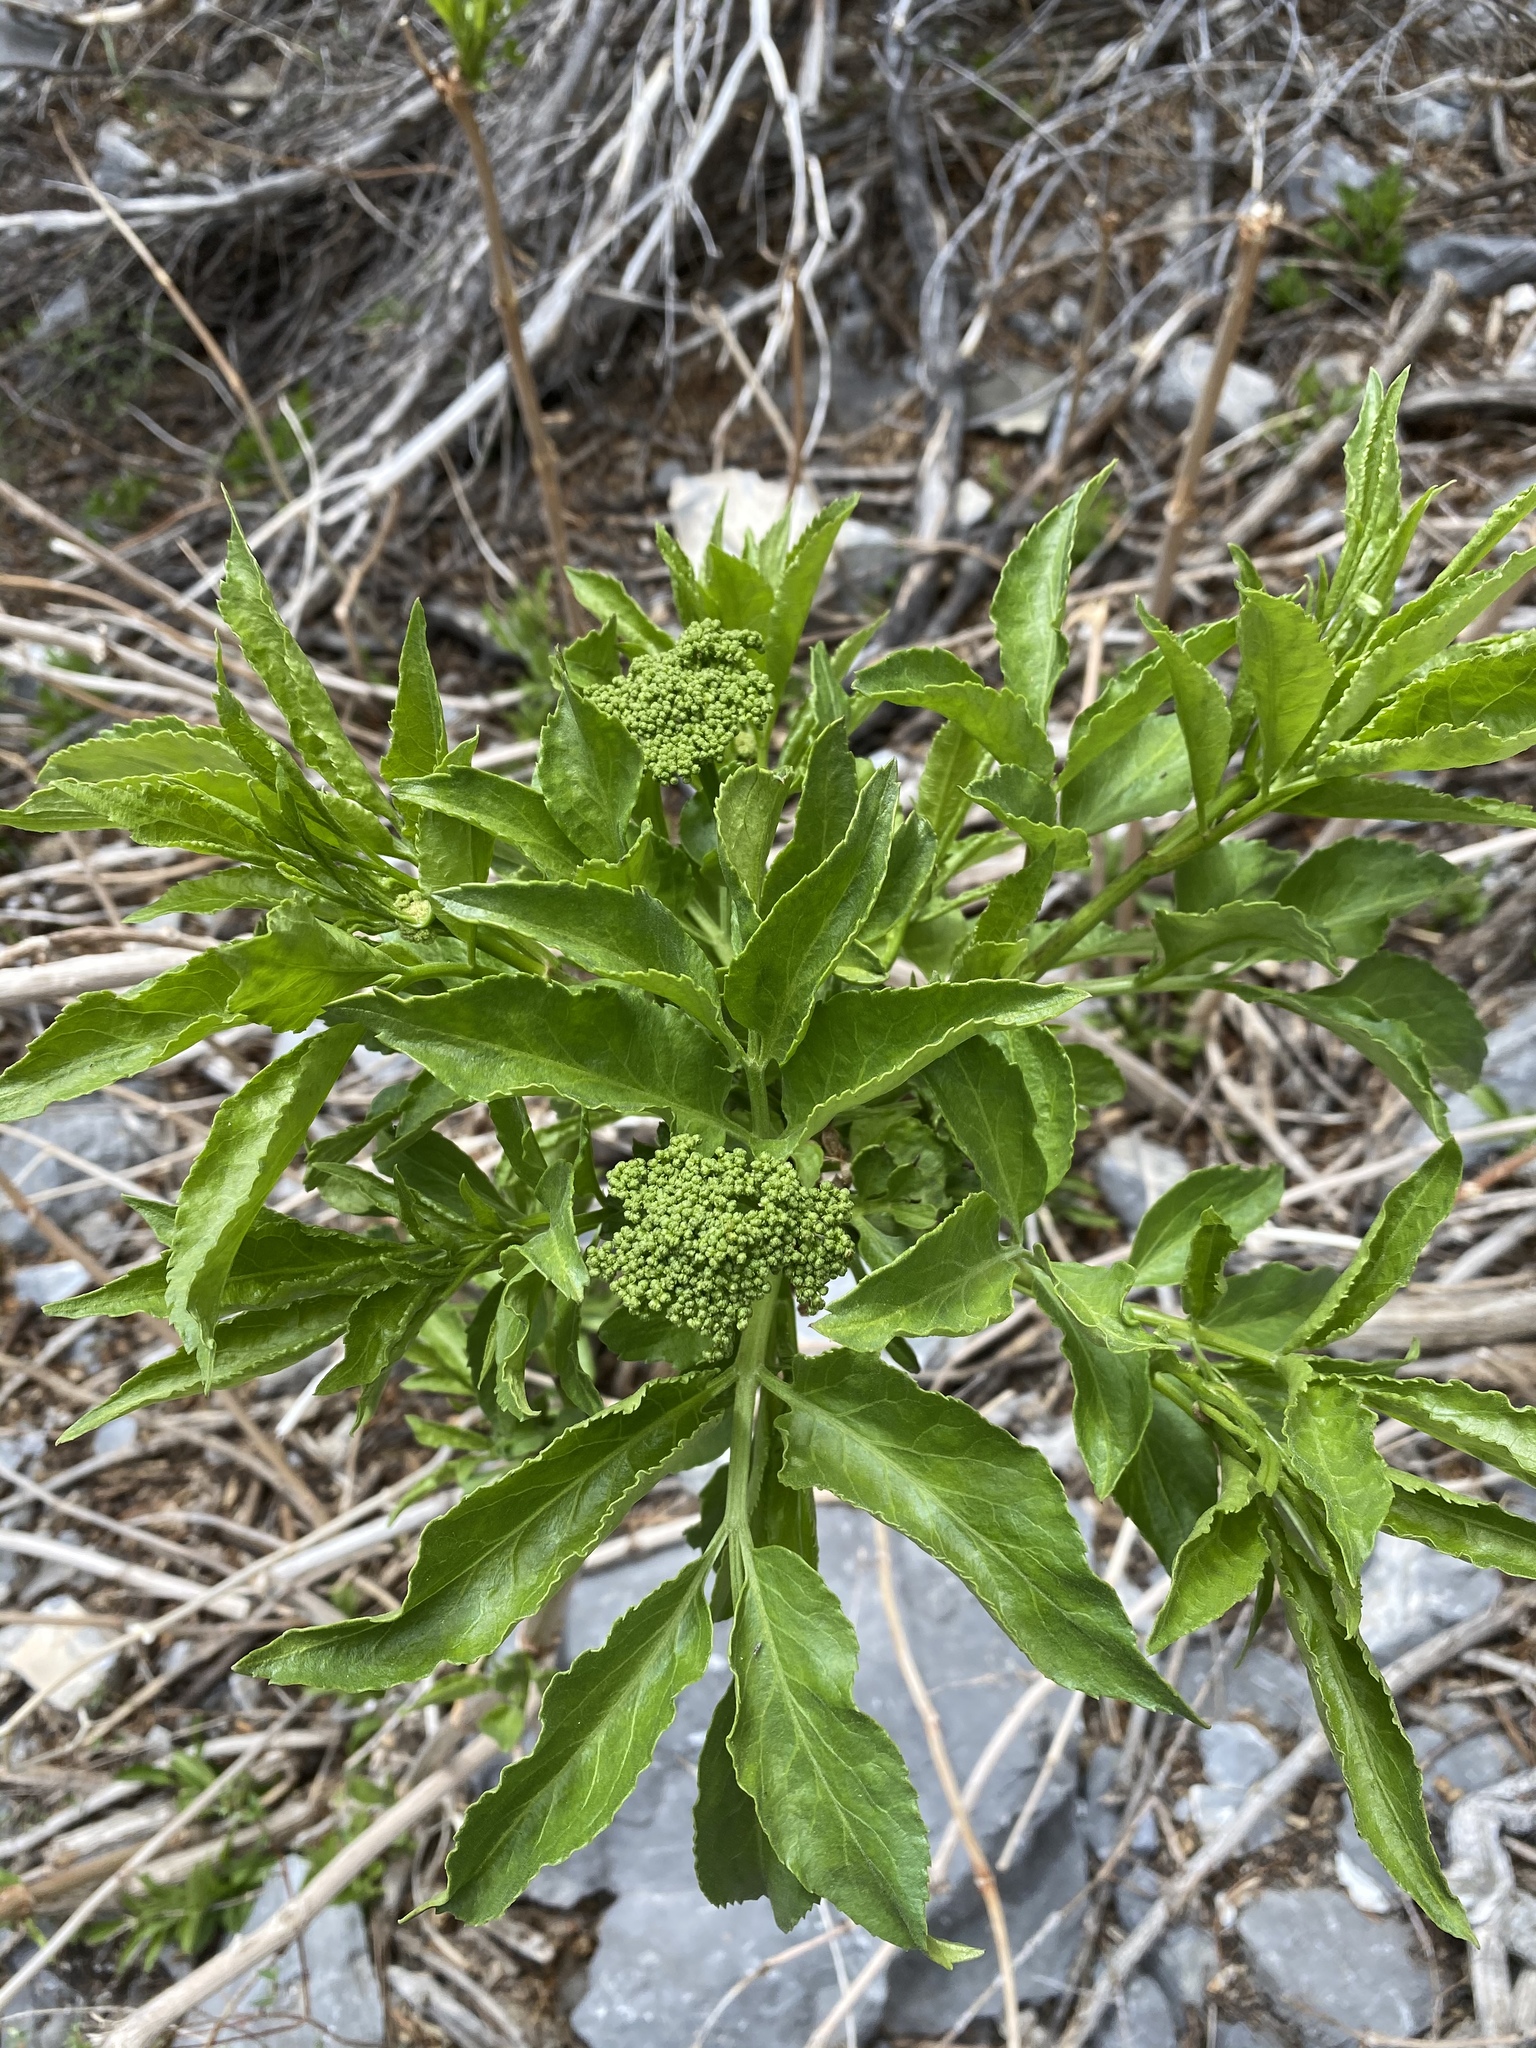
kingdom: Plantae
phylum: Tracheophyta
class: Magnoliopsida
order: Dipsacales
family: Viburnaceae
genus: Sambucus
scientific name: Sambucus cerulea
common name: Blue elder
